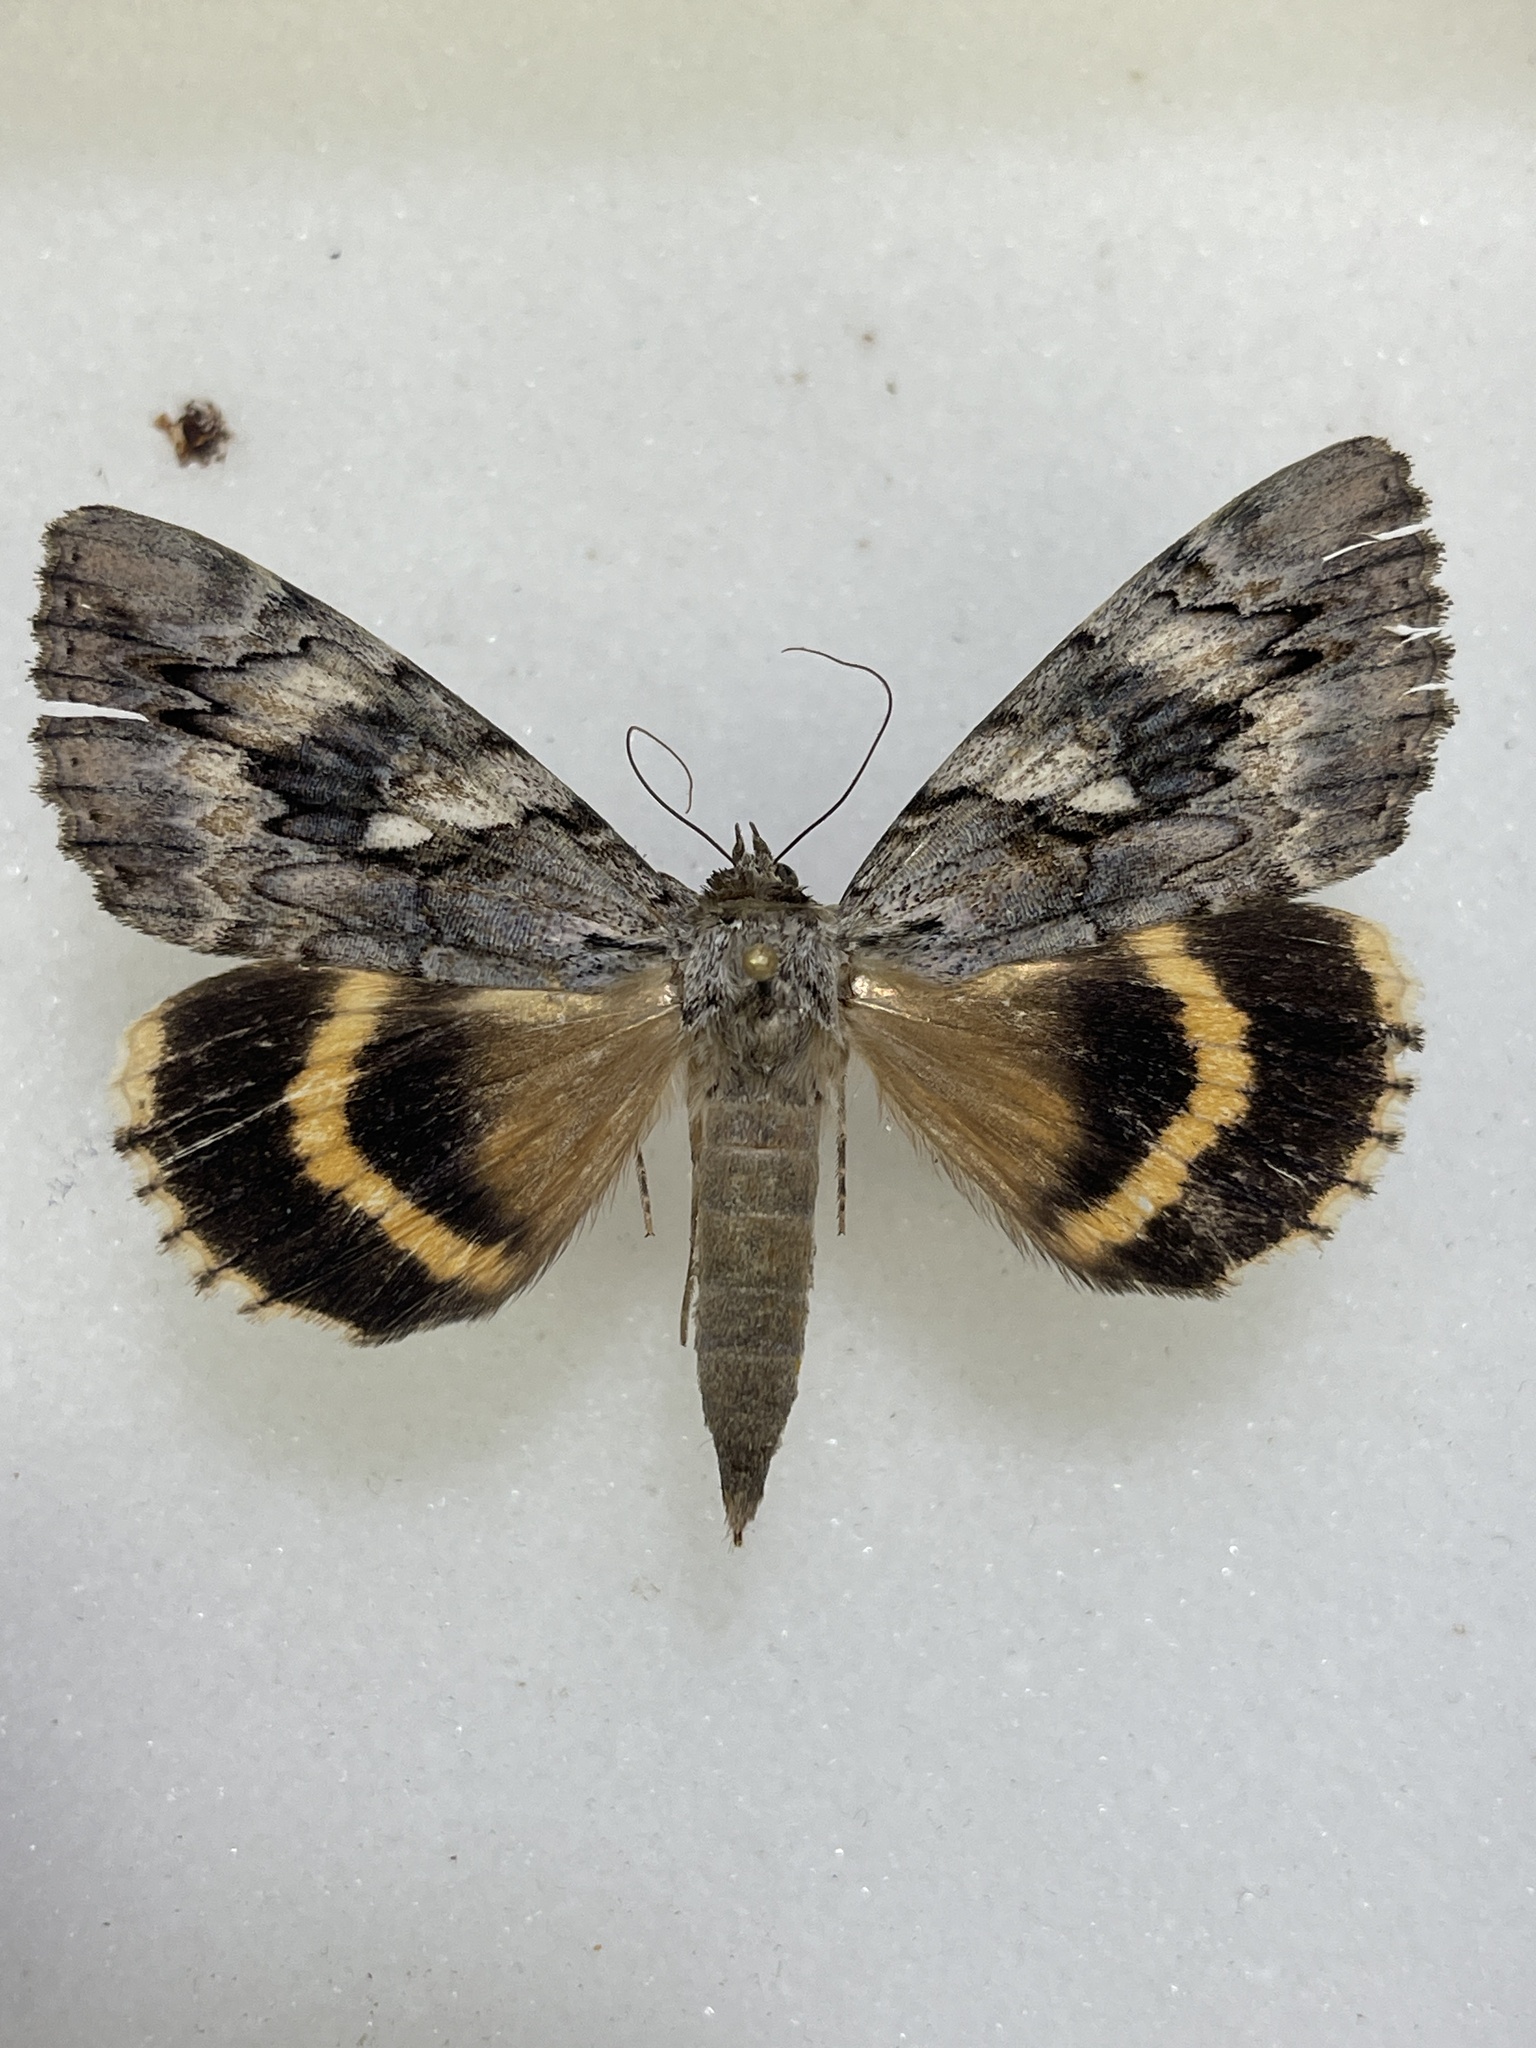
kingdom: Animalia
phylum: Arthropoda
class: Insecta
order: Lepidoptera
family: Erebidae
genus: Catocala
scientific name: Catocala cerogama
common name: Yellow banded underwing
